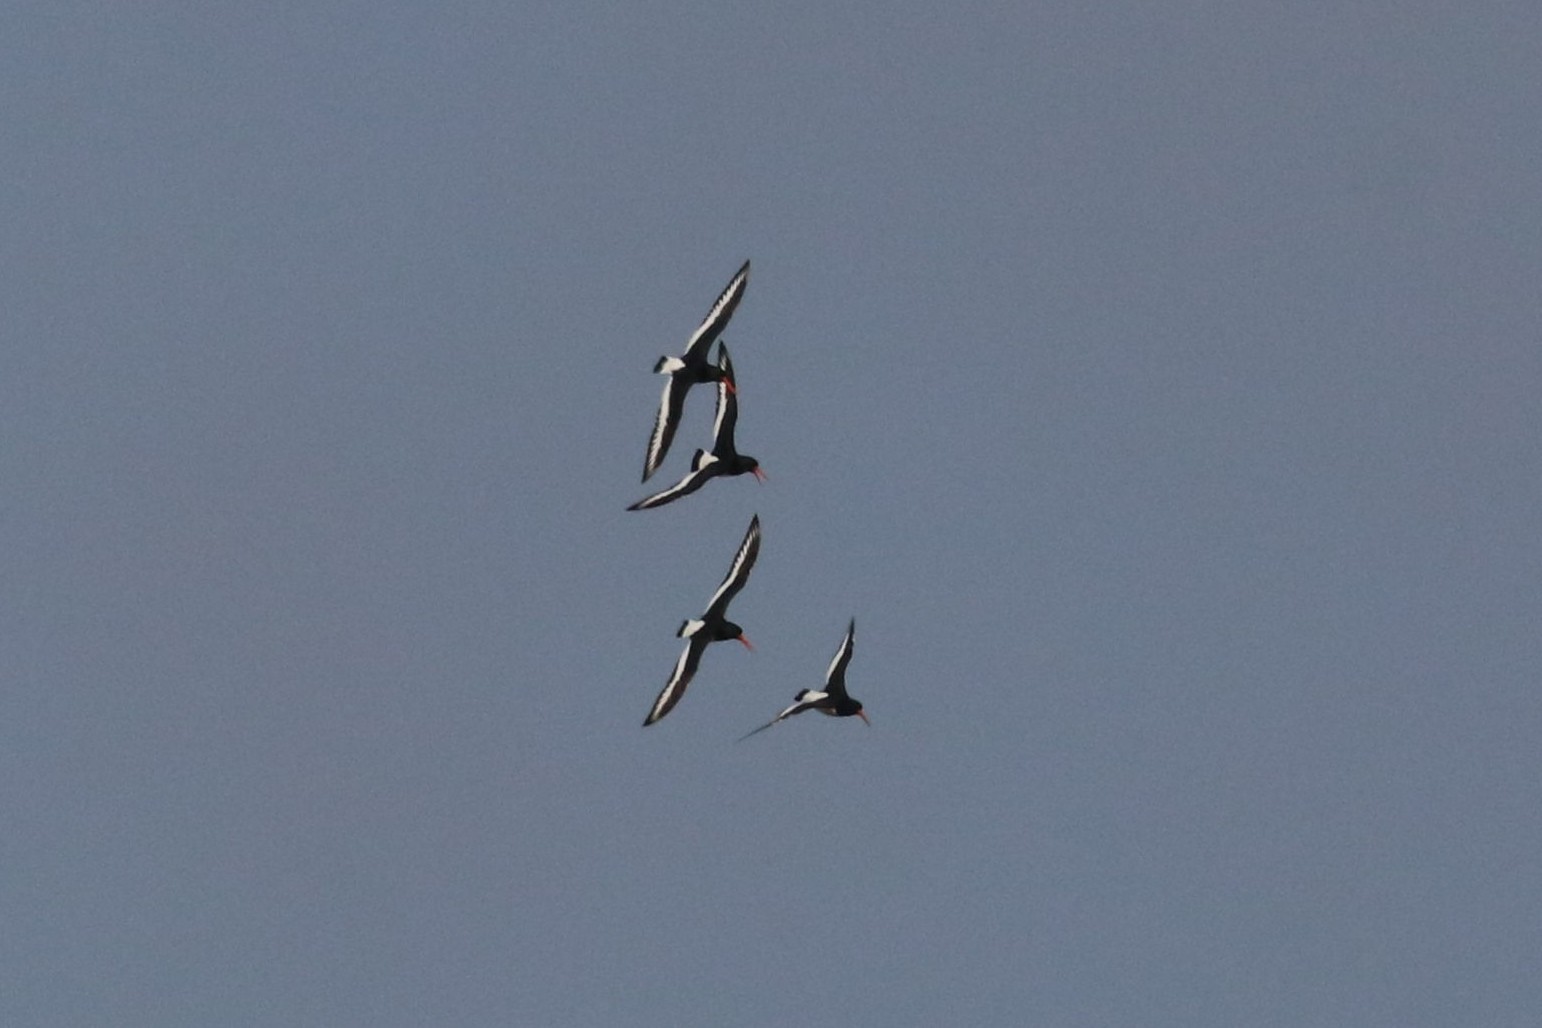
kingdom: Animalia
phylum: Chordata
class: Aves
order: Charadriiformes
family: Haematopodidae
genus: Haematopus
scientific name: Haematopus ostralegus
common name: Eurasian oystercatcher
